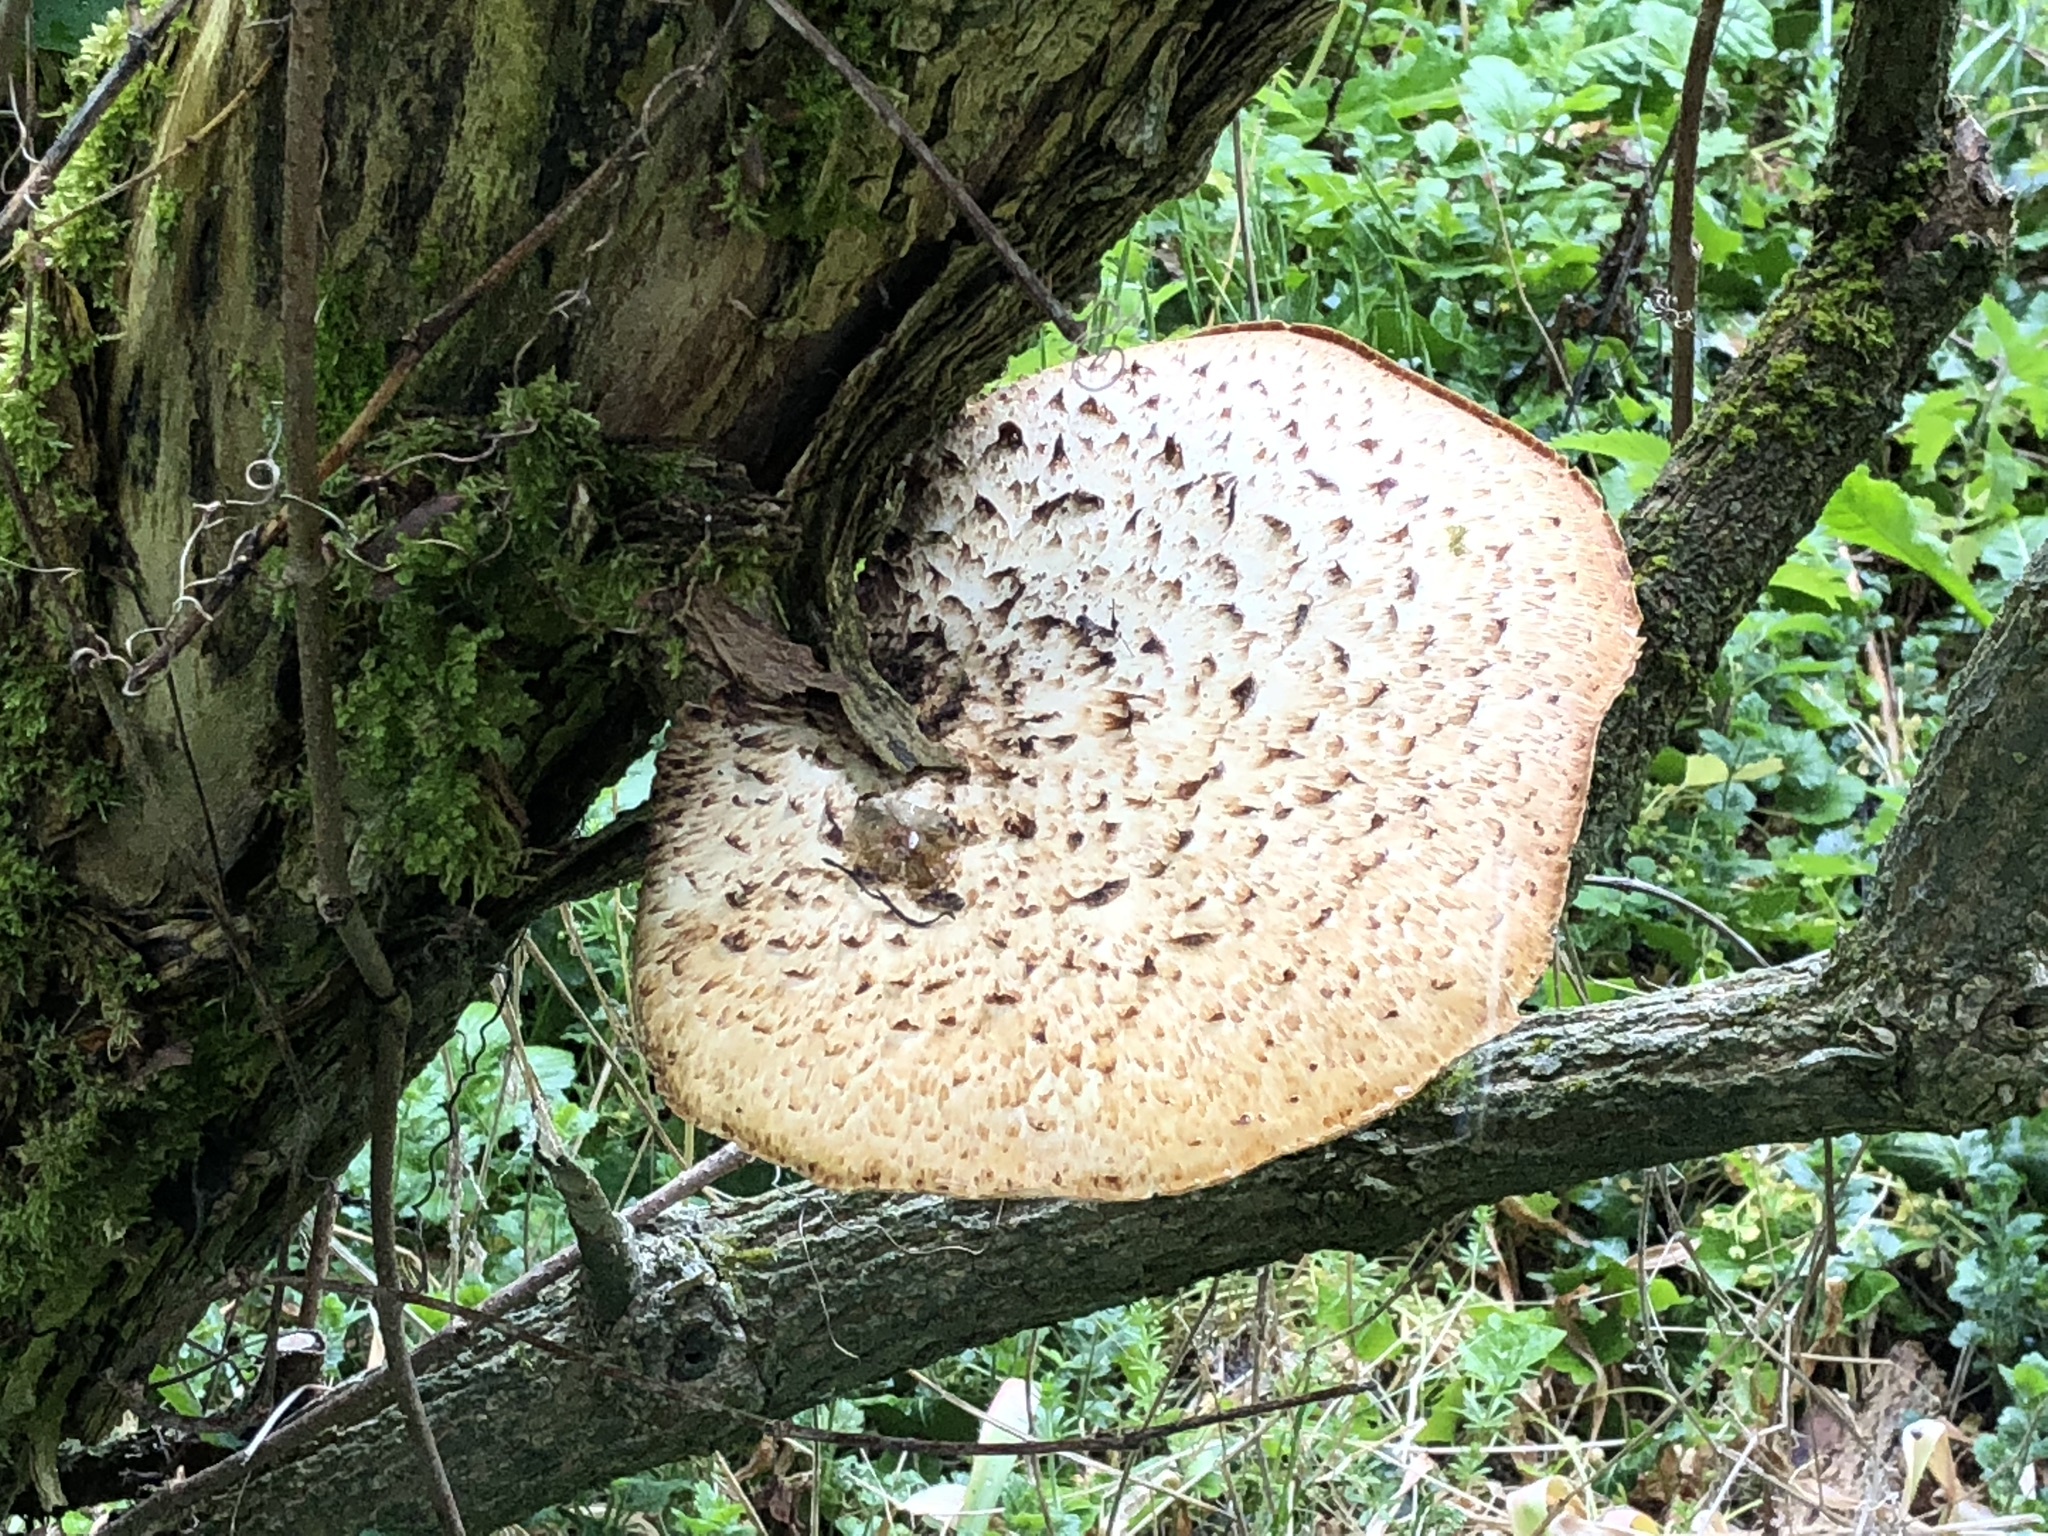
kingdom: Fungi
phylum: Basidiomycota
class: Agaricomycetes
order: Polyporales
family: Polyporaceae
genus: Cerioporus
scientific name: Cerioporus squamosus
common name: Dryad's saddle
